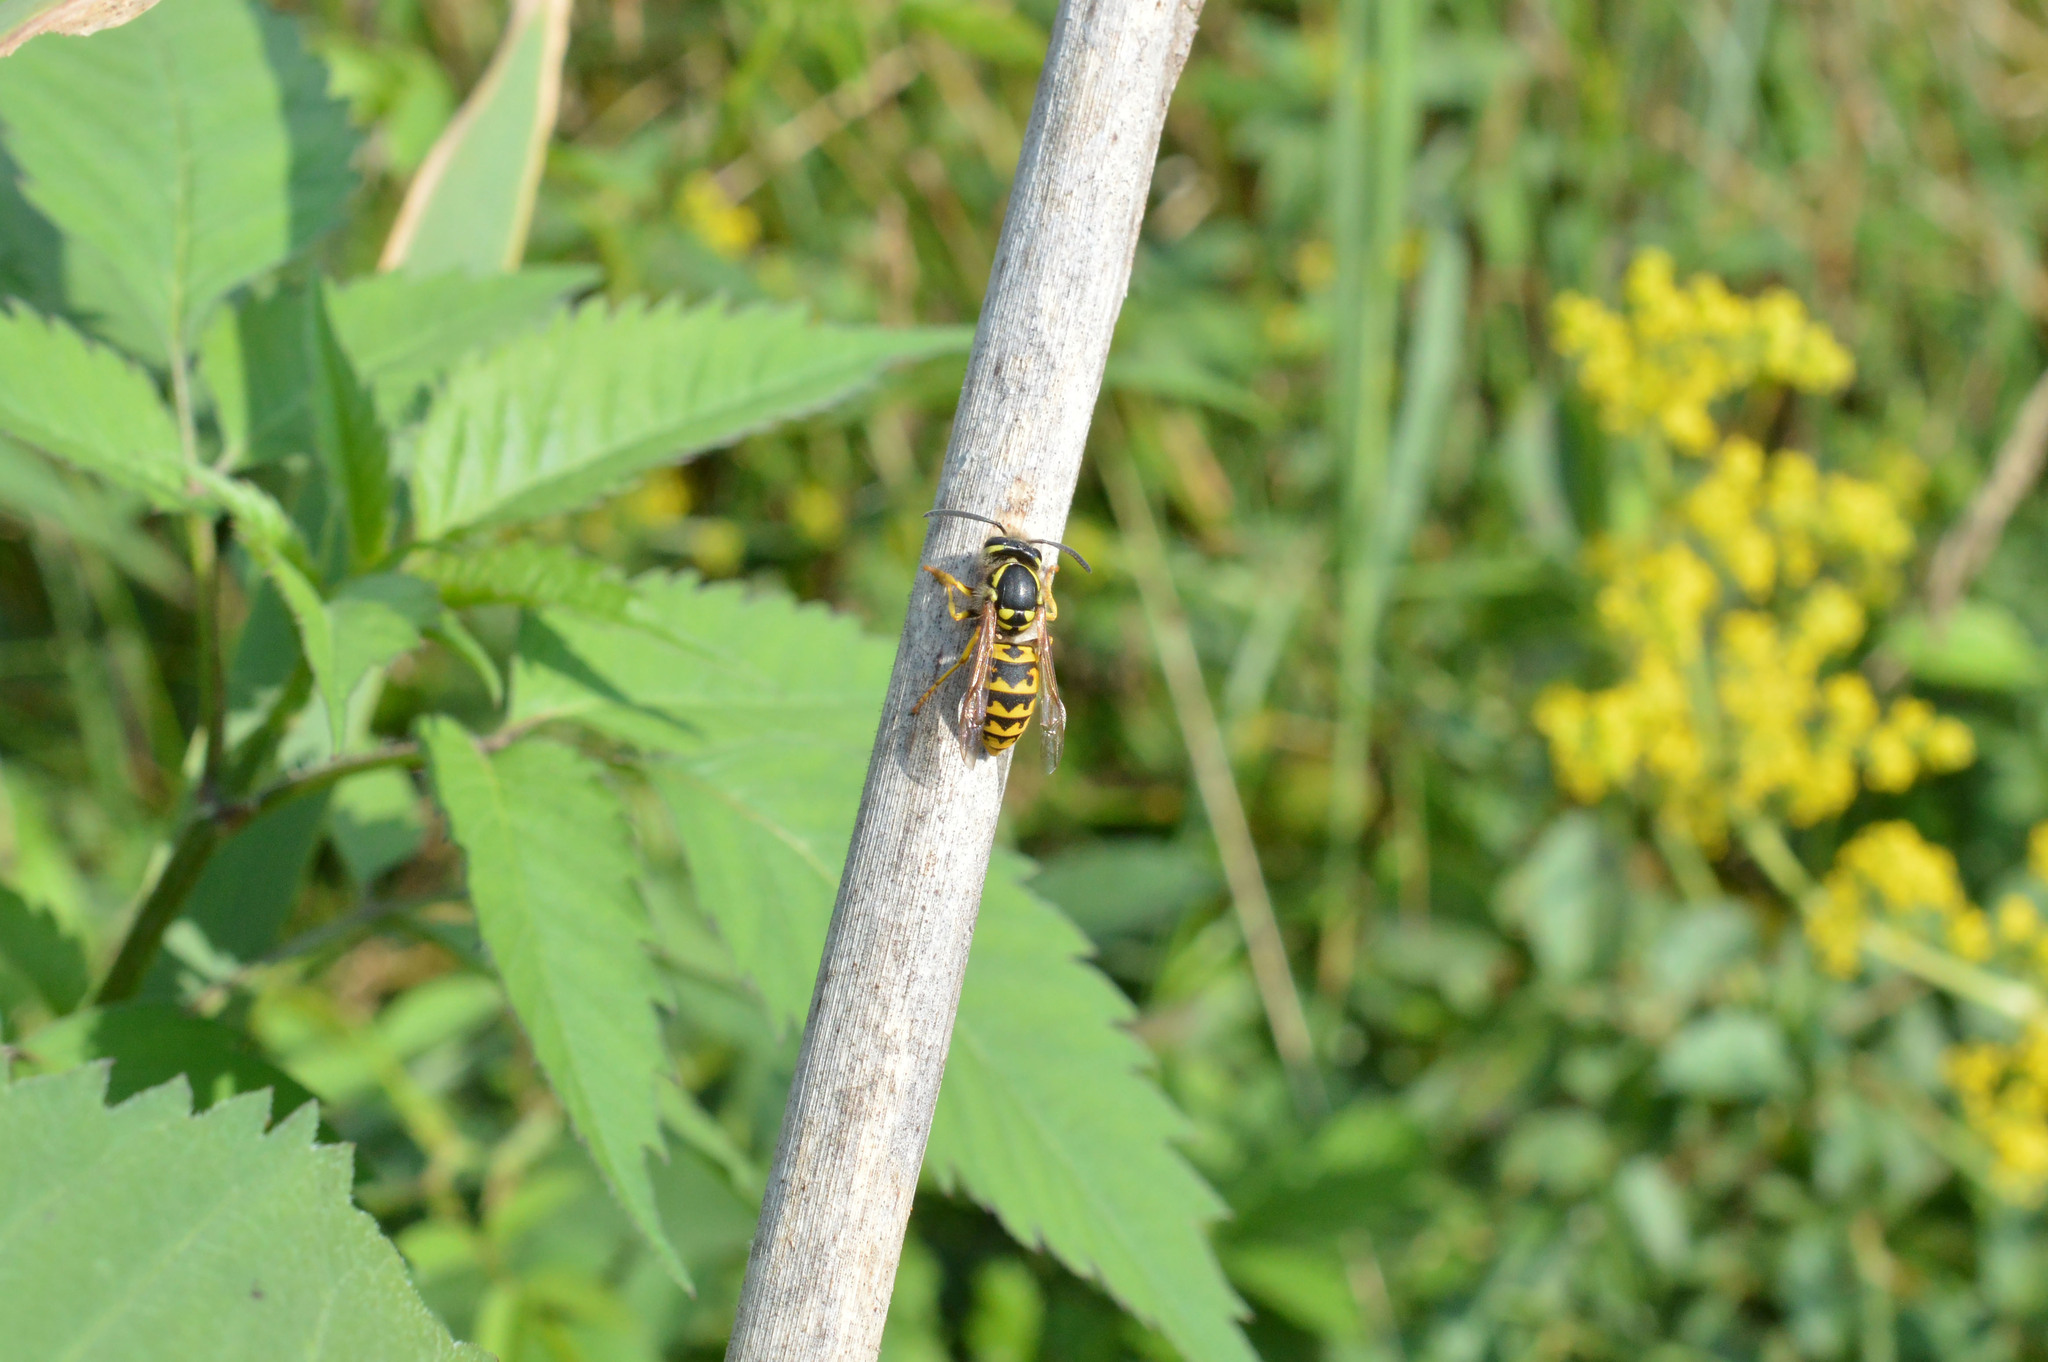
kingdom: Animalia
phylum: Arthropoda
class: Insecta
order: Hymenoptera
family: Vespidae
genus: Vespula
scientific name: Vespula germanica
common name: German wasp
